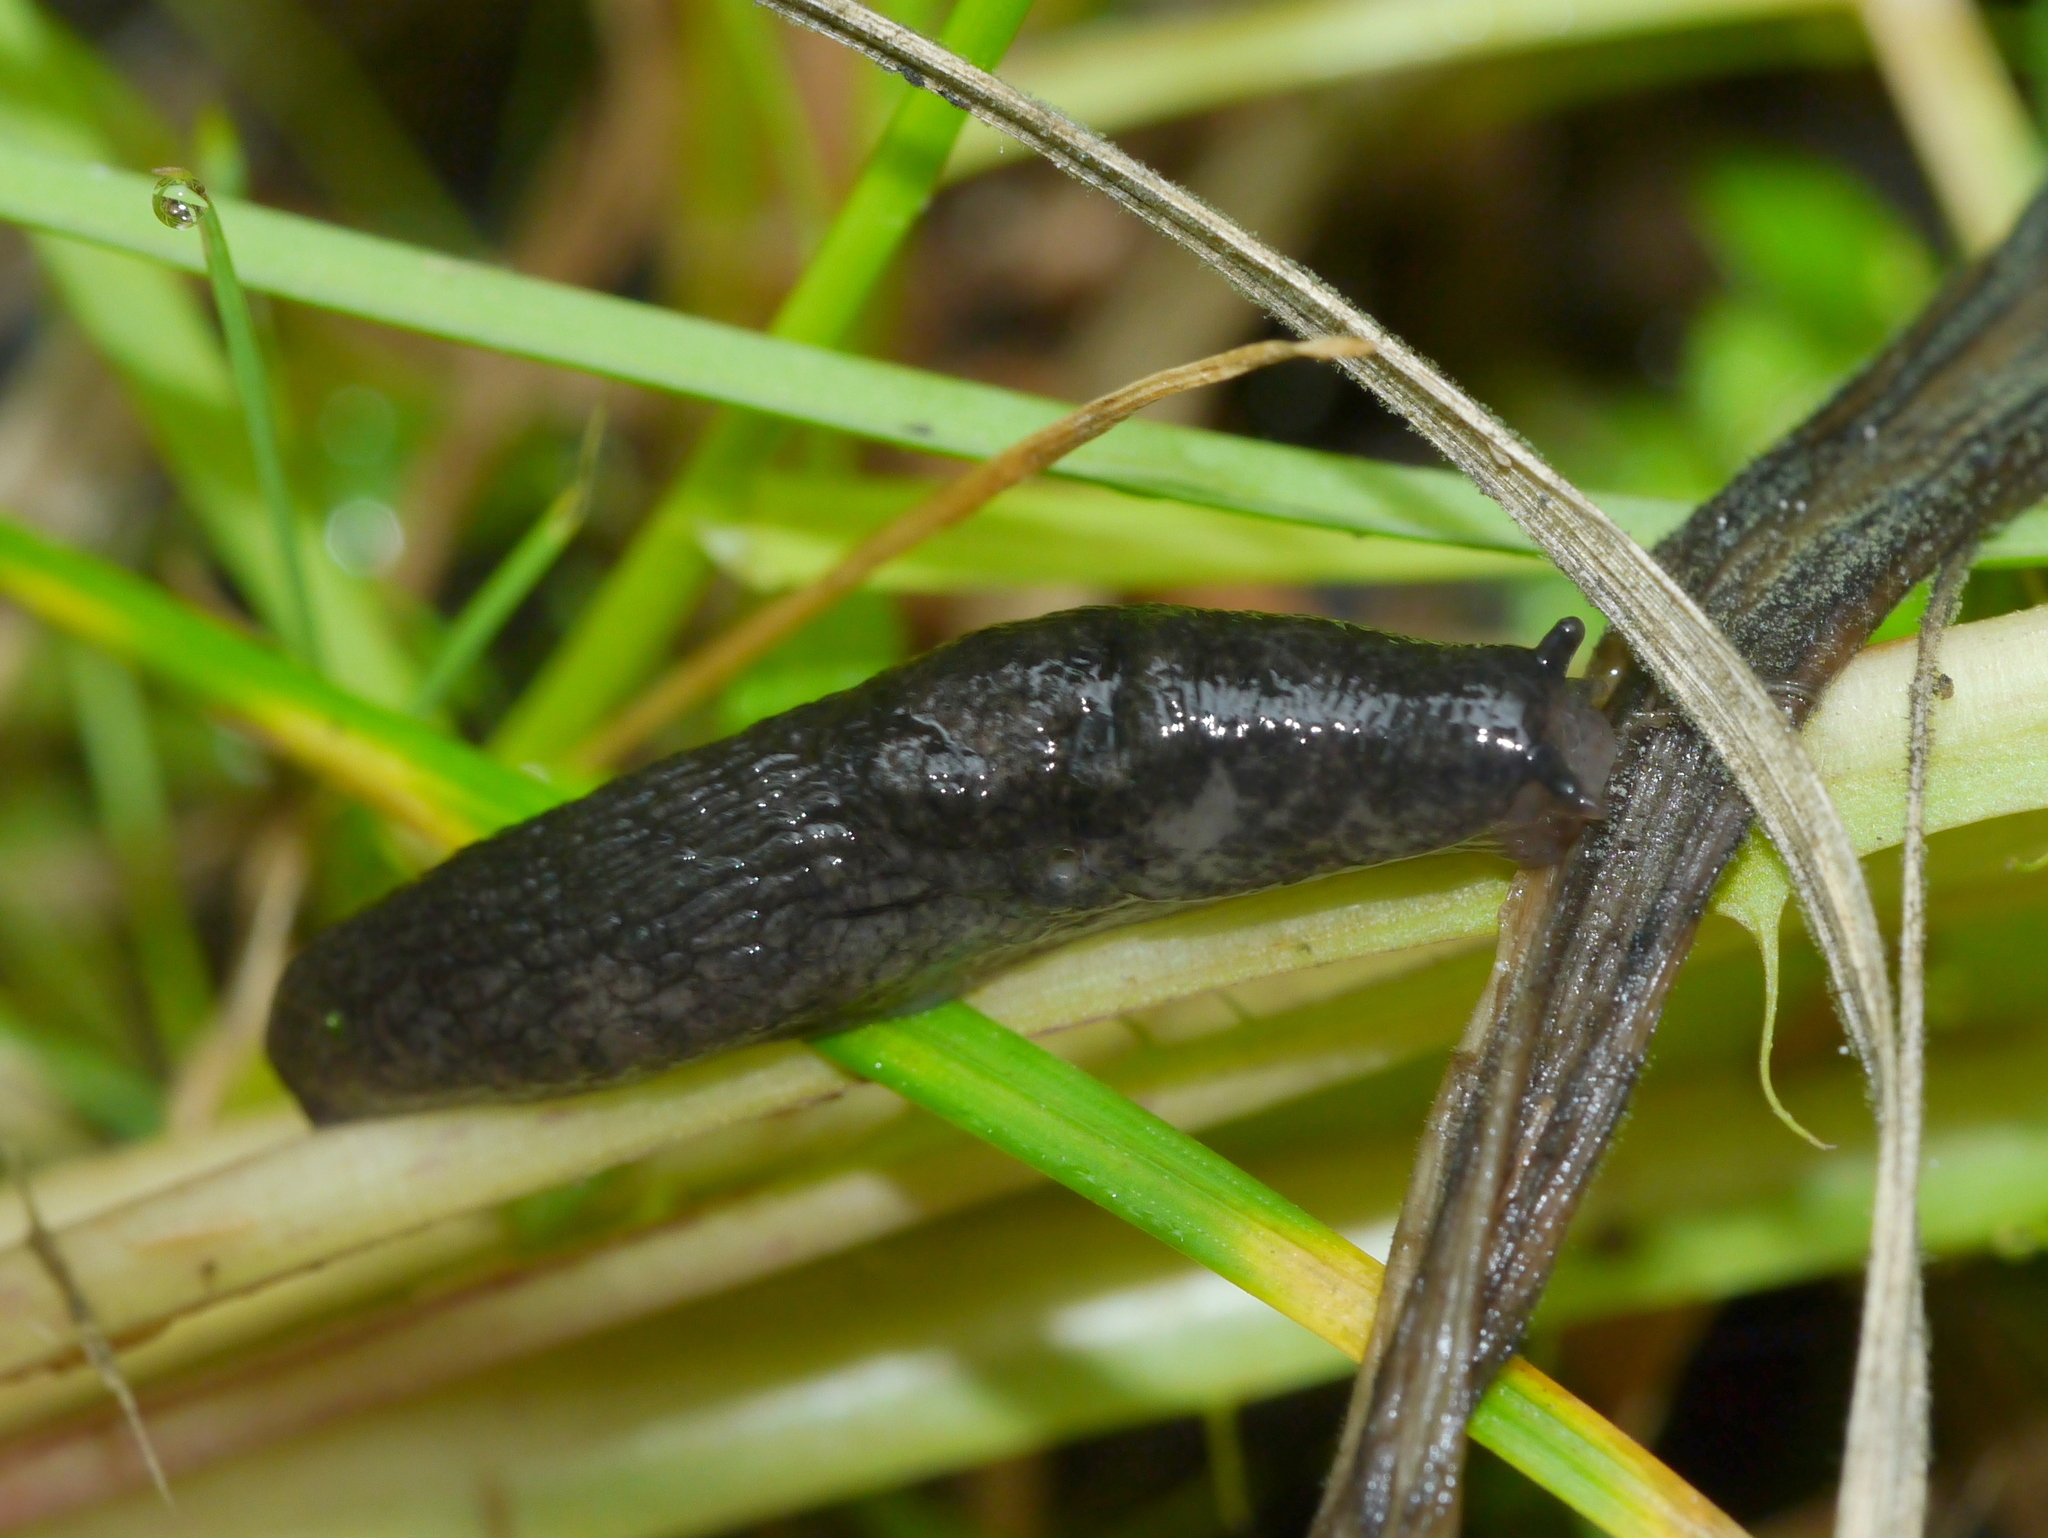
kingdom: Animalia
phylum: Mollusca
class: Gastropoda
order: Stylommatophora
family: Agriolimacidae
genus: Deroceras
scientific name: Deroceras reticulatum
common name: Gray field slug
